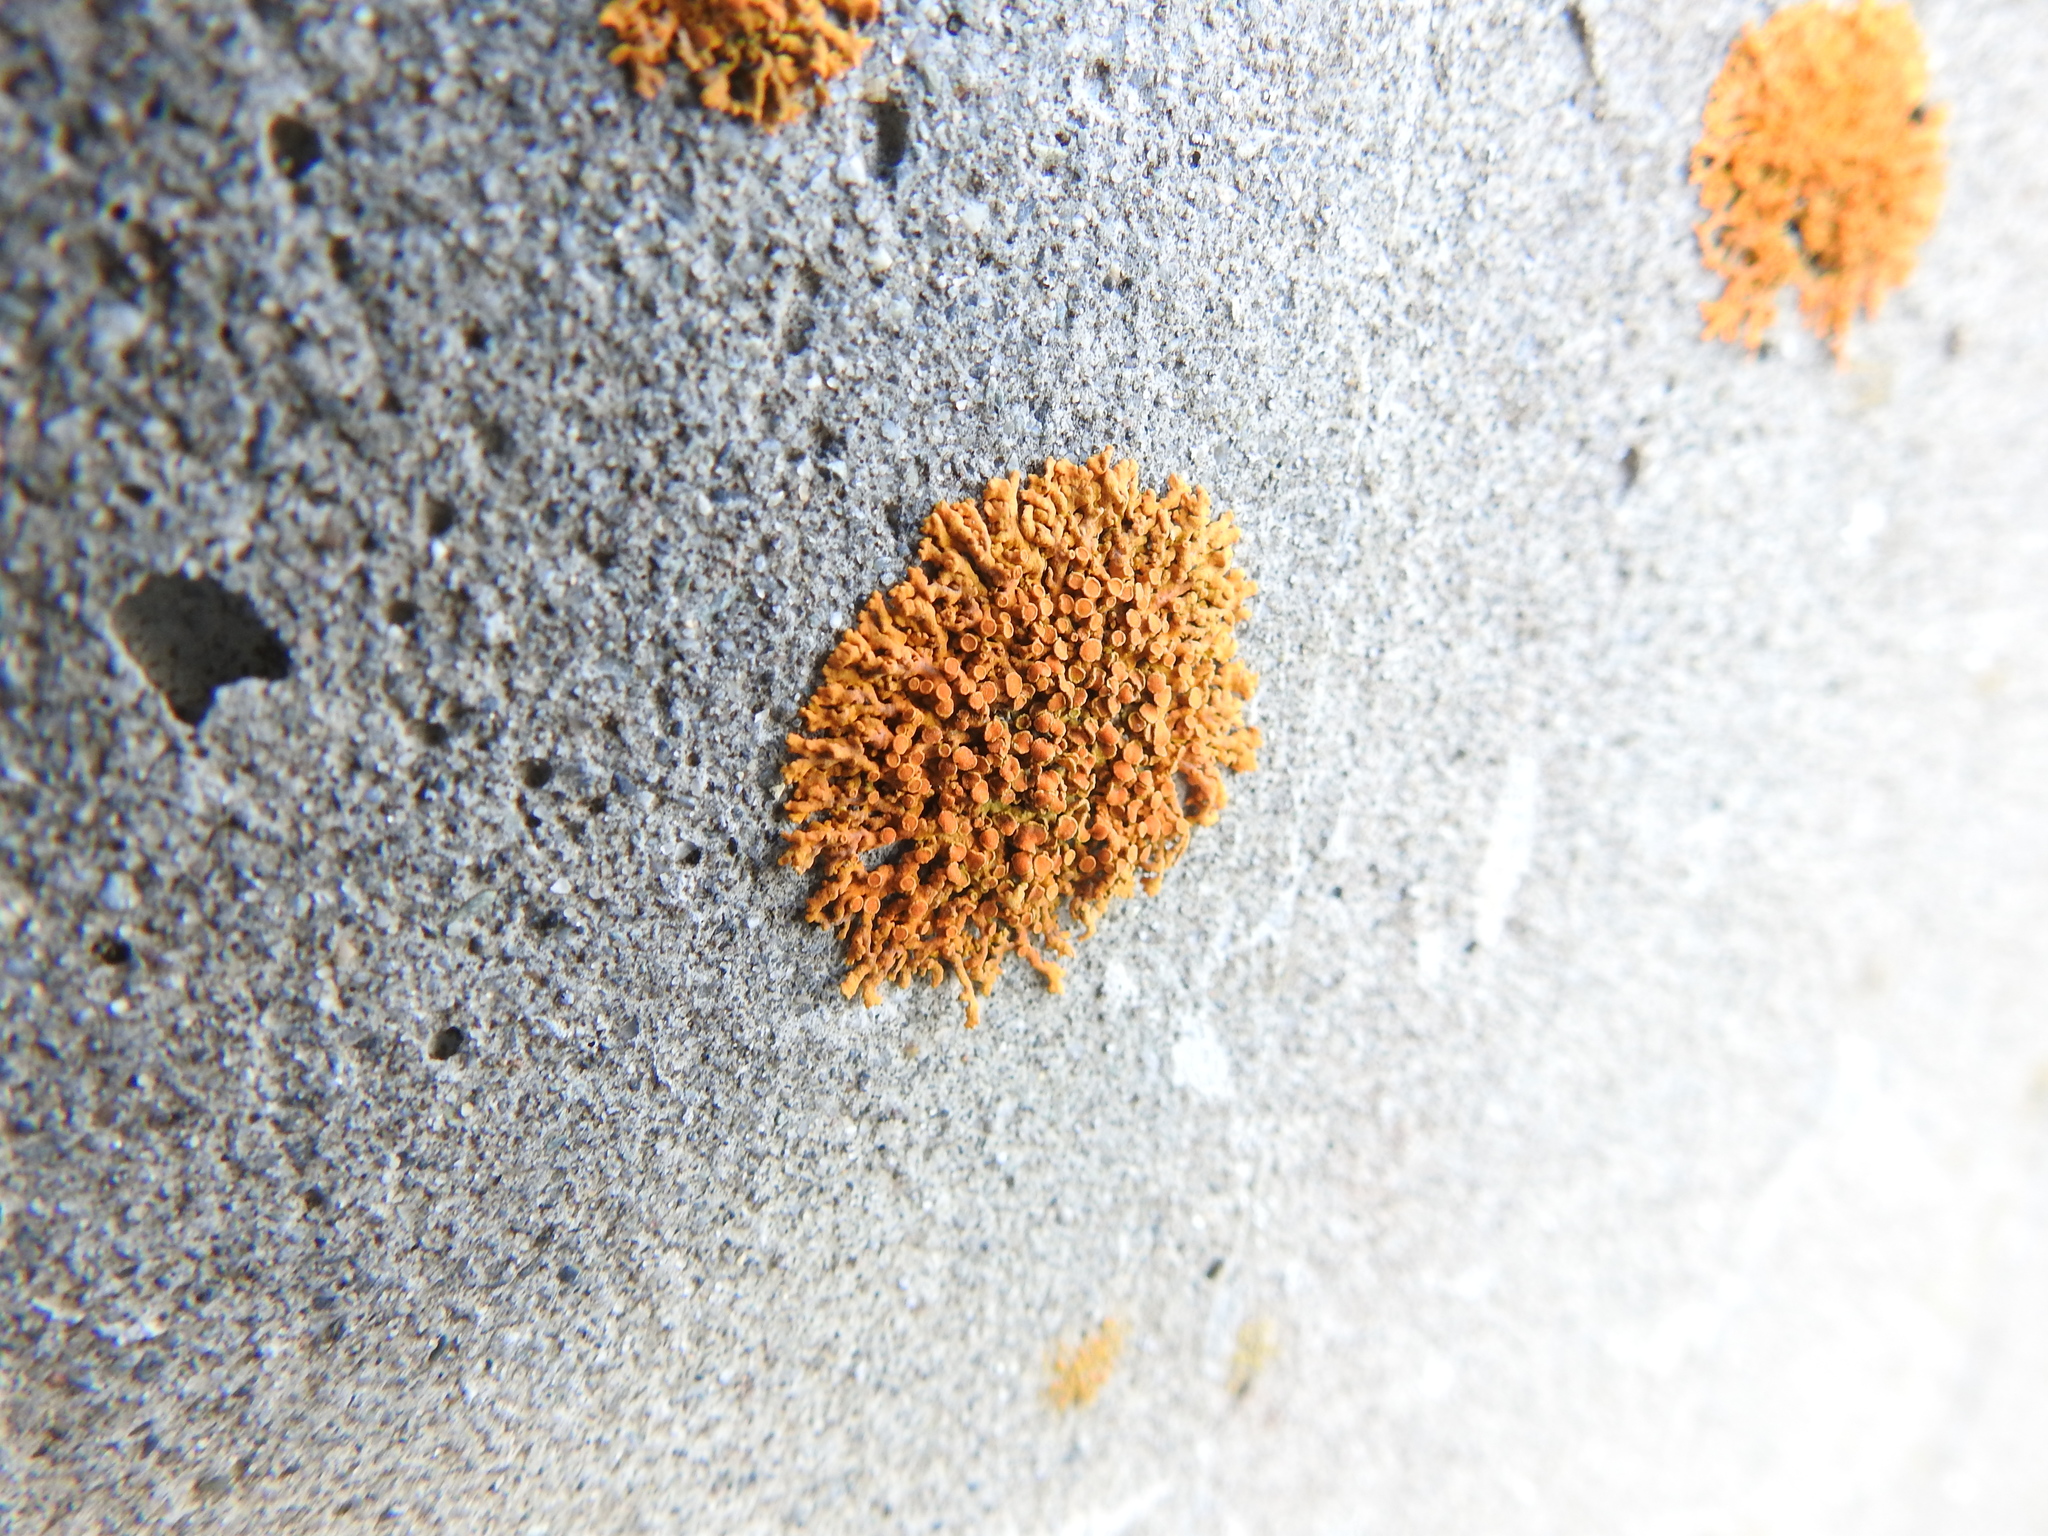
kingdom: Fungi
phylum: Ascomycota
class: Lecanoromycetes
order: Teloschistales
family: Teloschistaceae
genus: Xanthoria
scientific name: Xanthoria elegans
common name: Elegant sunburst lichen
